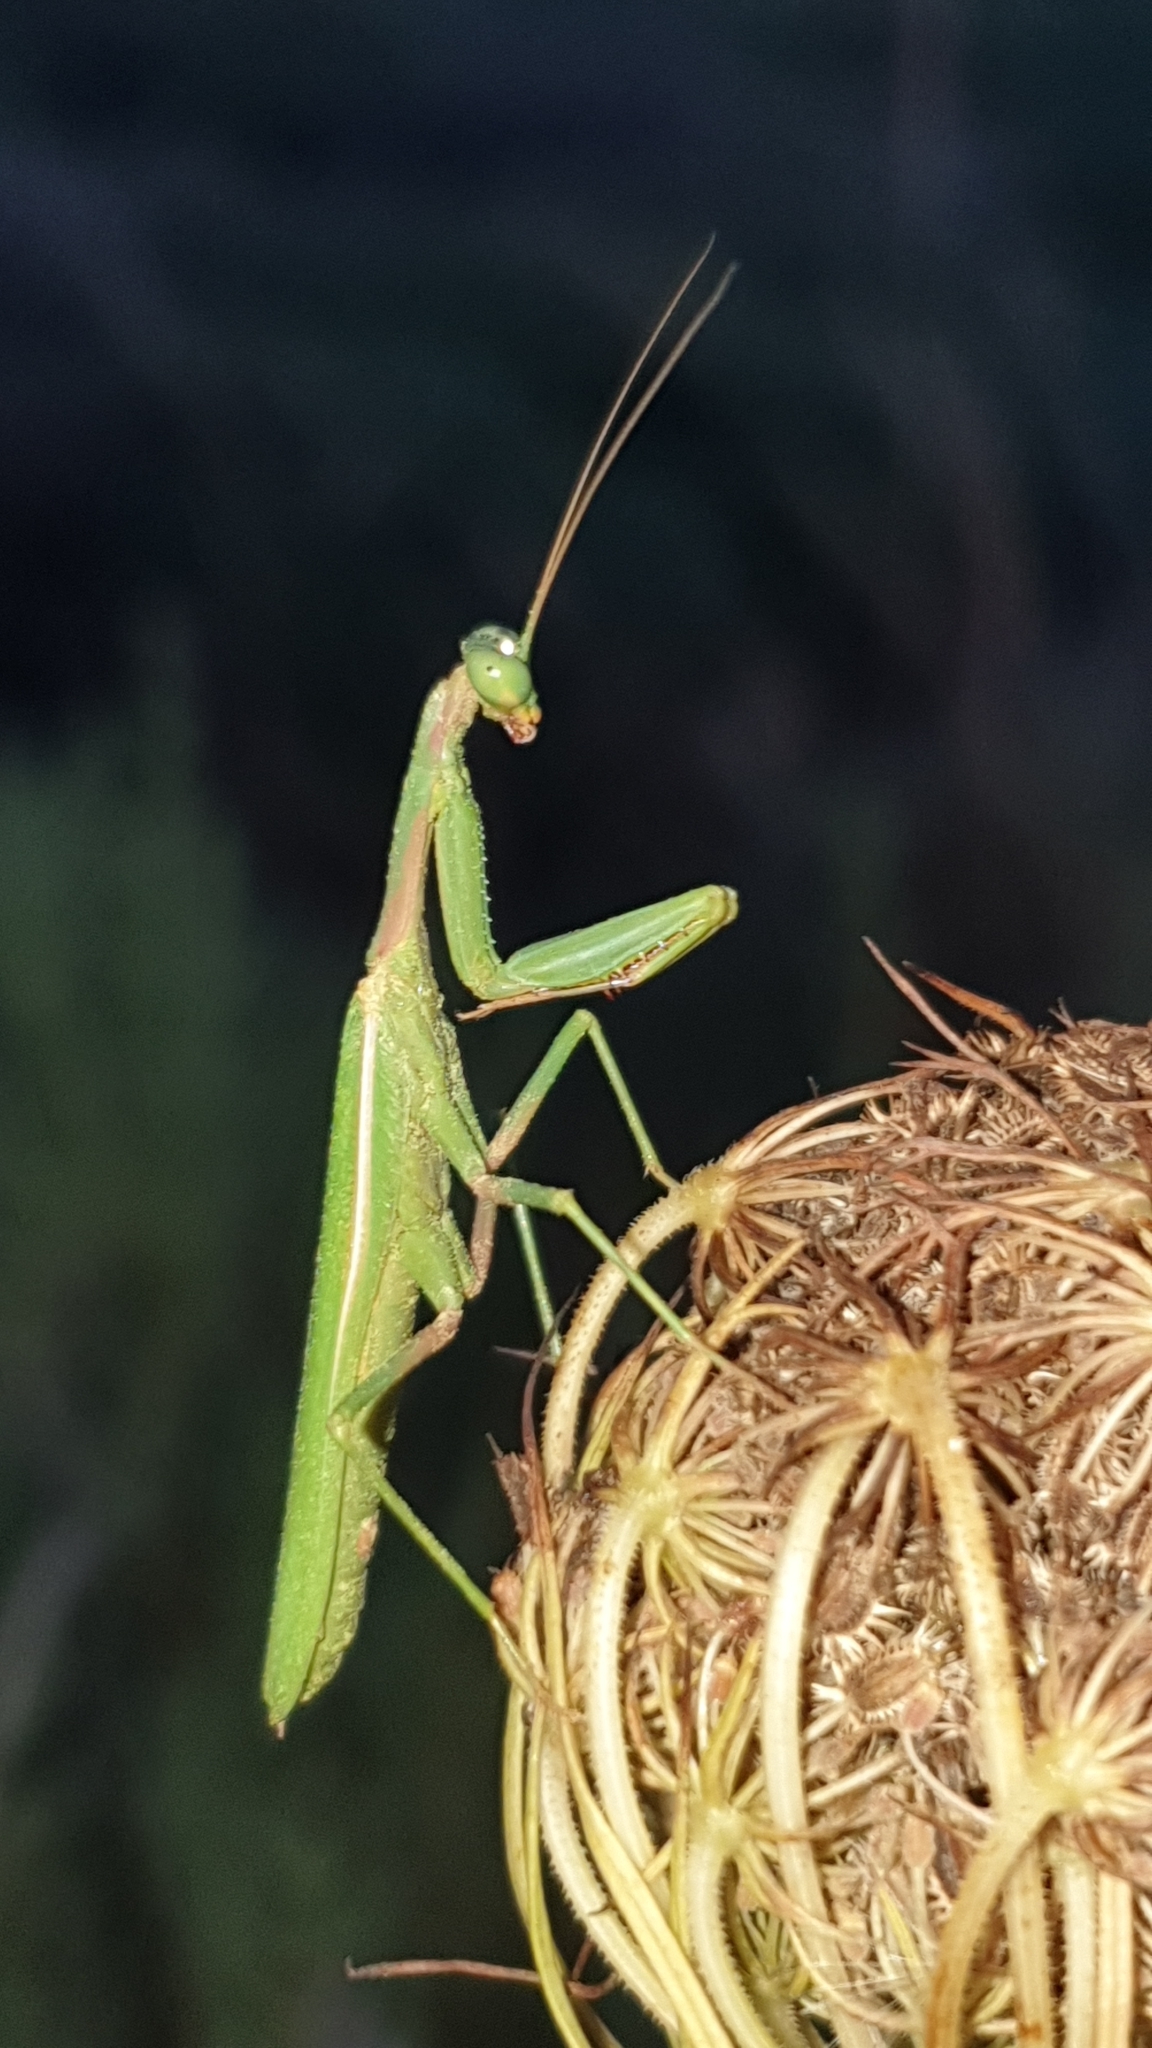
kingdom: Animalia
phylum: Arthropoda
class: Insecta
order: Mantodea
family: Eremiaphilidae
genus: Iris
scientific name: Iris oratoria
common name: Mediterranean mantis
